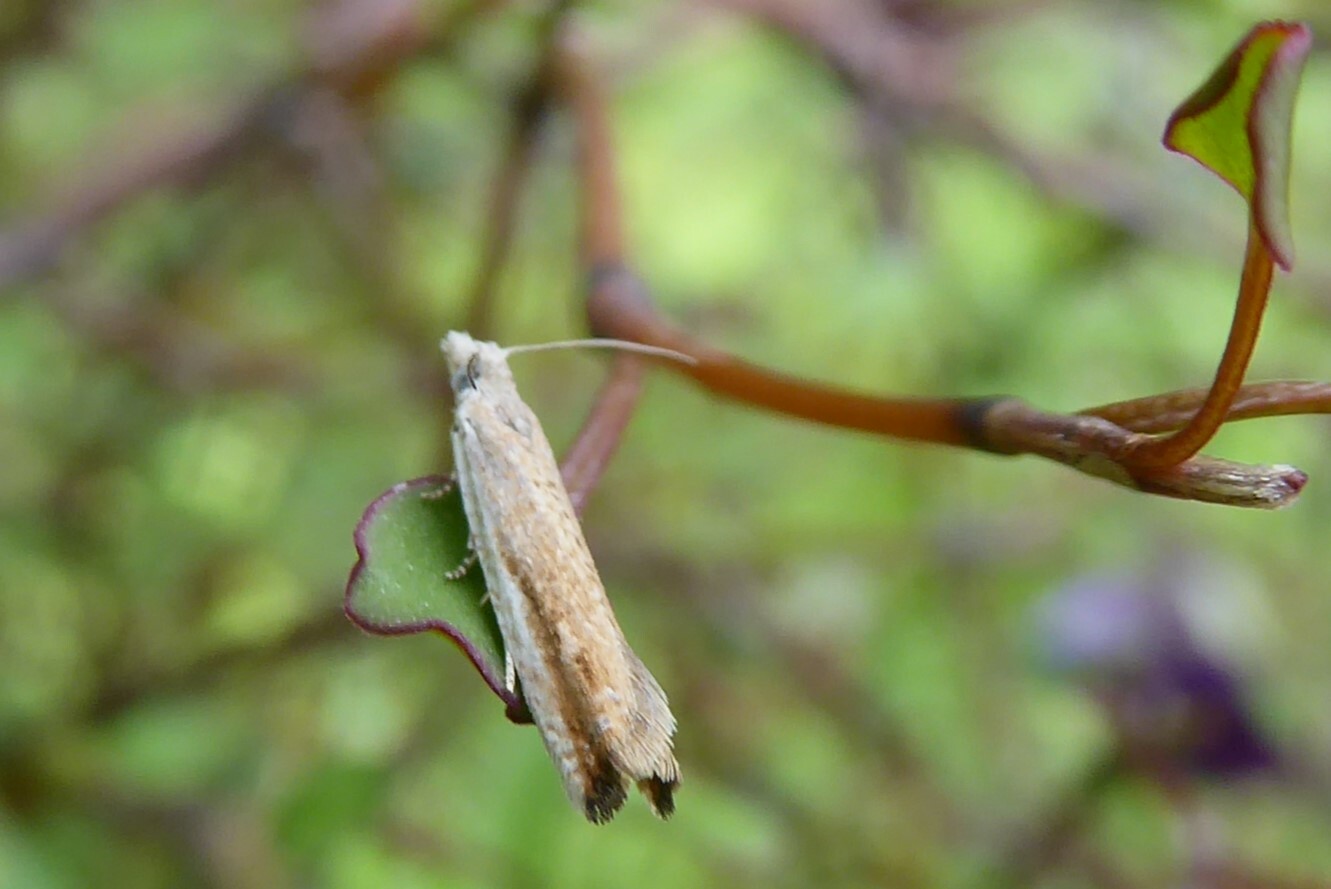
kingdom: Animalia
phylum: Arthropoda
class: Insecta
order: Lepidoptera
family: Tortricidae
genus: Holocola
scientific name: Holocola
